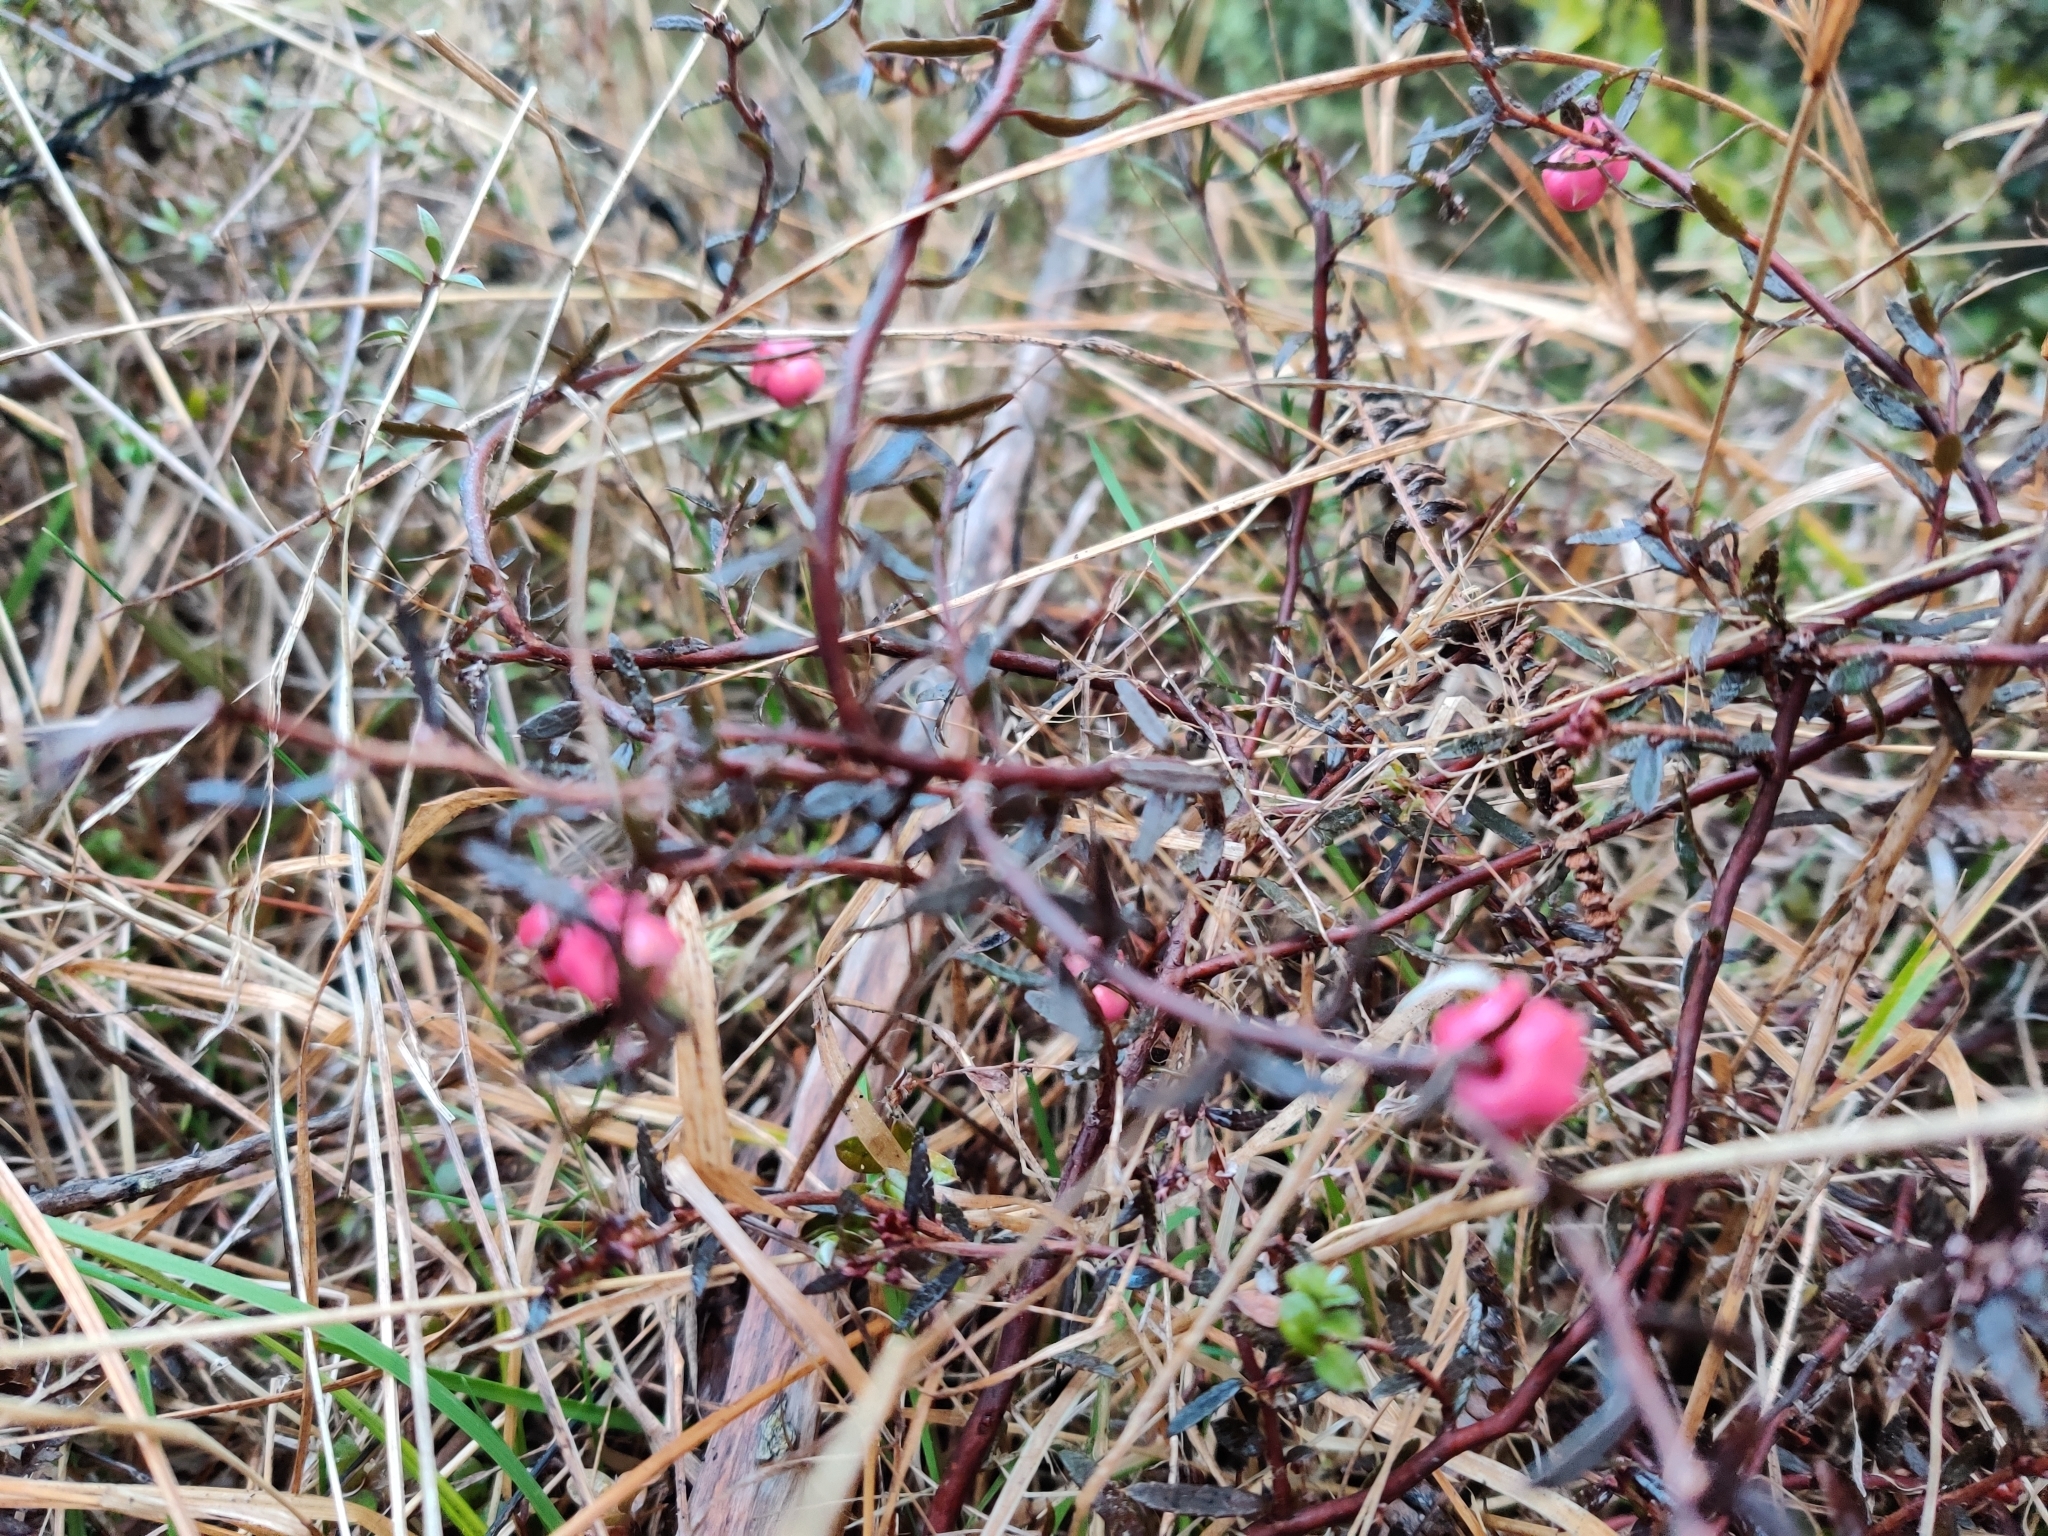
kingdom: Plantae
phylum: Tracheophyta
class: Magnoliopsida
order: Ericales
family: Ericaceae
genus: Gaultheria
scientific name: Gaultheria macrostigma
